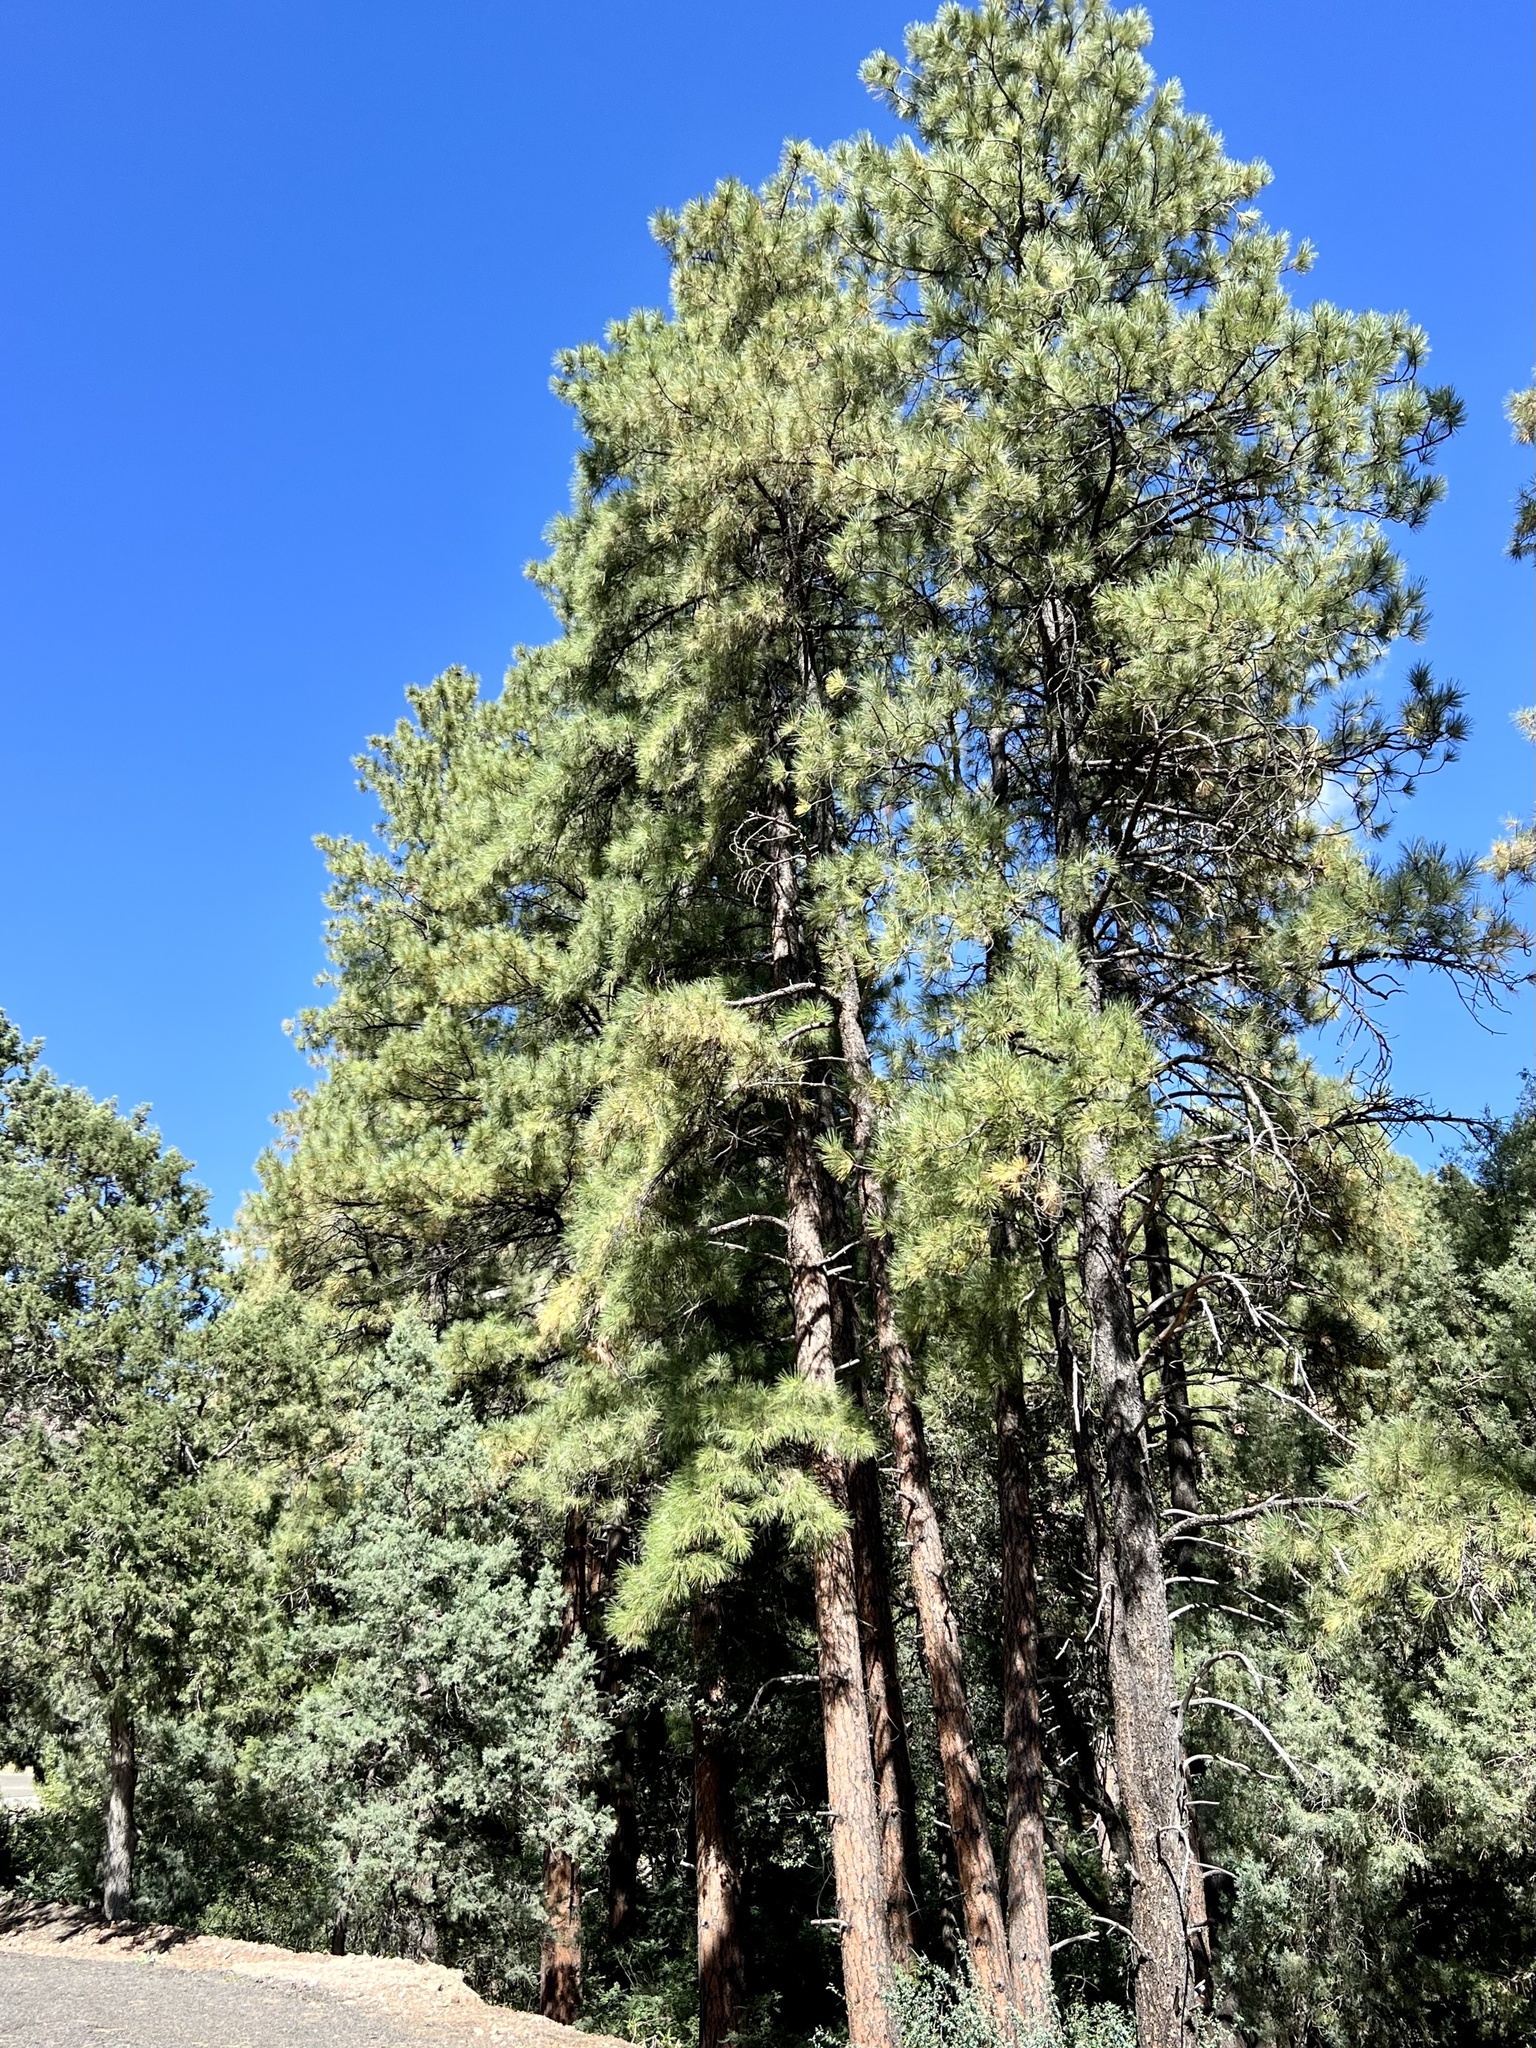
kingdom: Plantae
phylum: Tracheophyta
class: Pinopsida
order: Pinales
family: Pinaceae
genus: Pinus
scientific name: Pinus ponderosa
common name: Western yellow-pine
